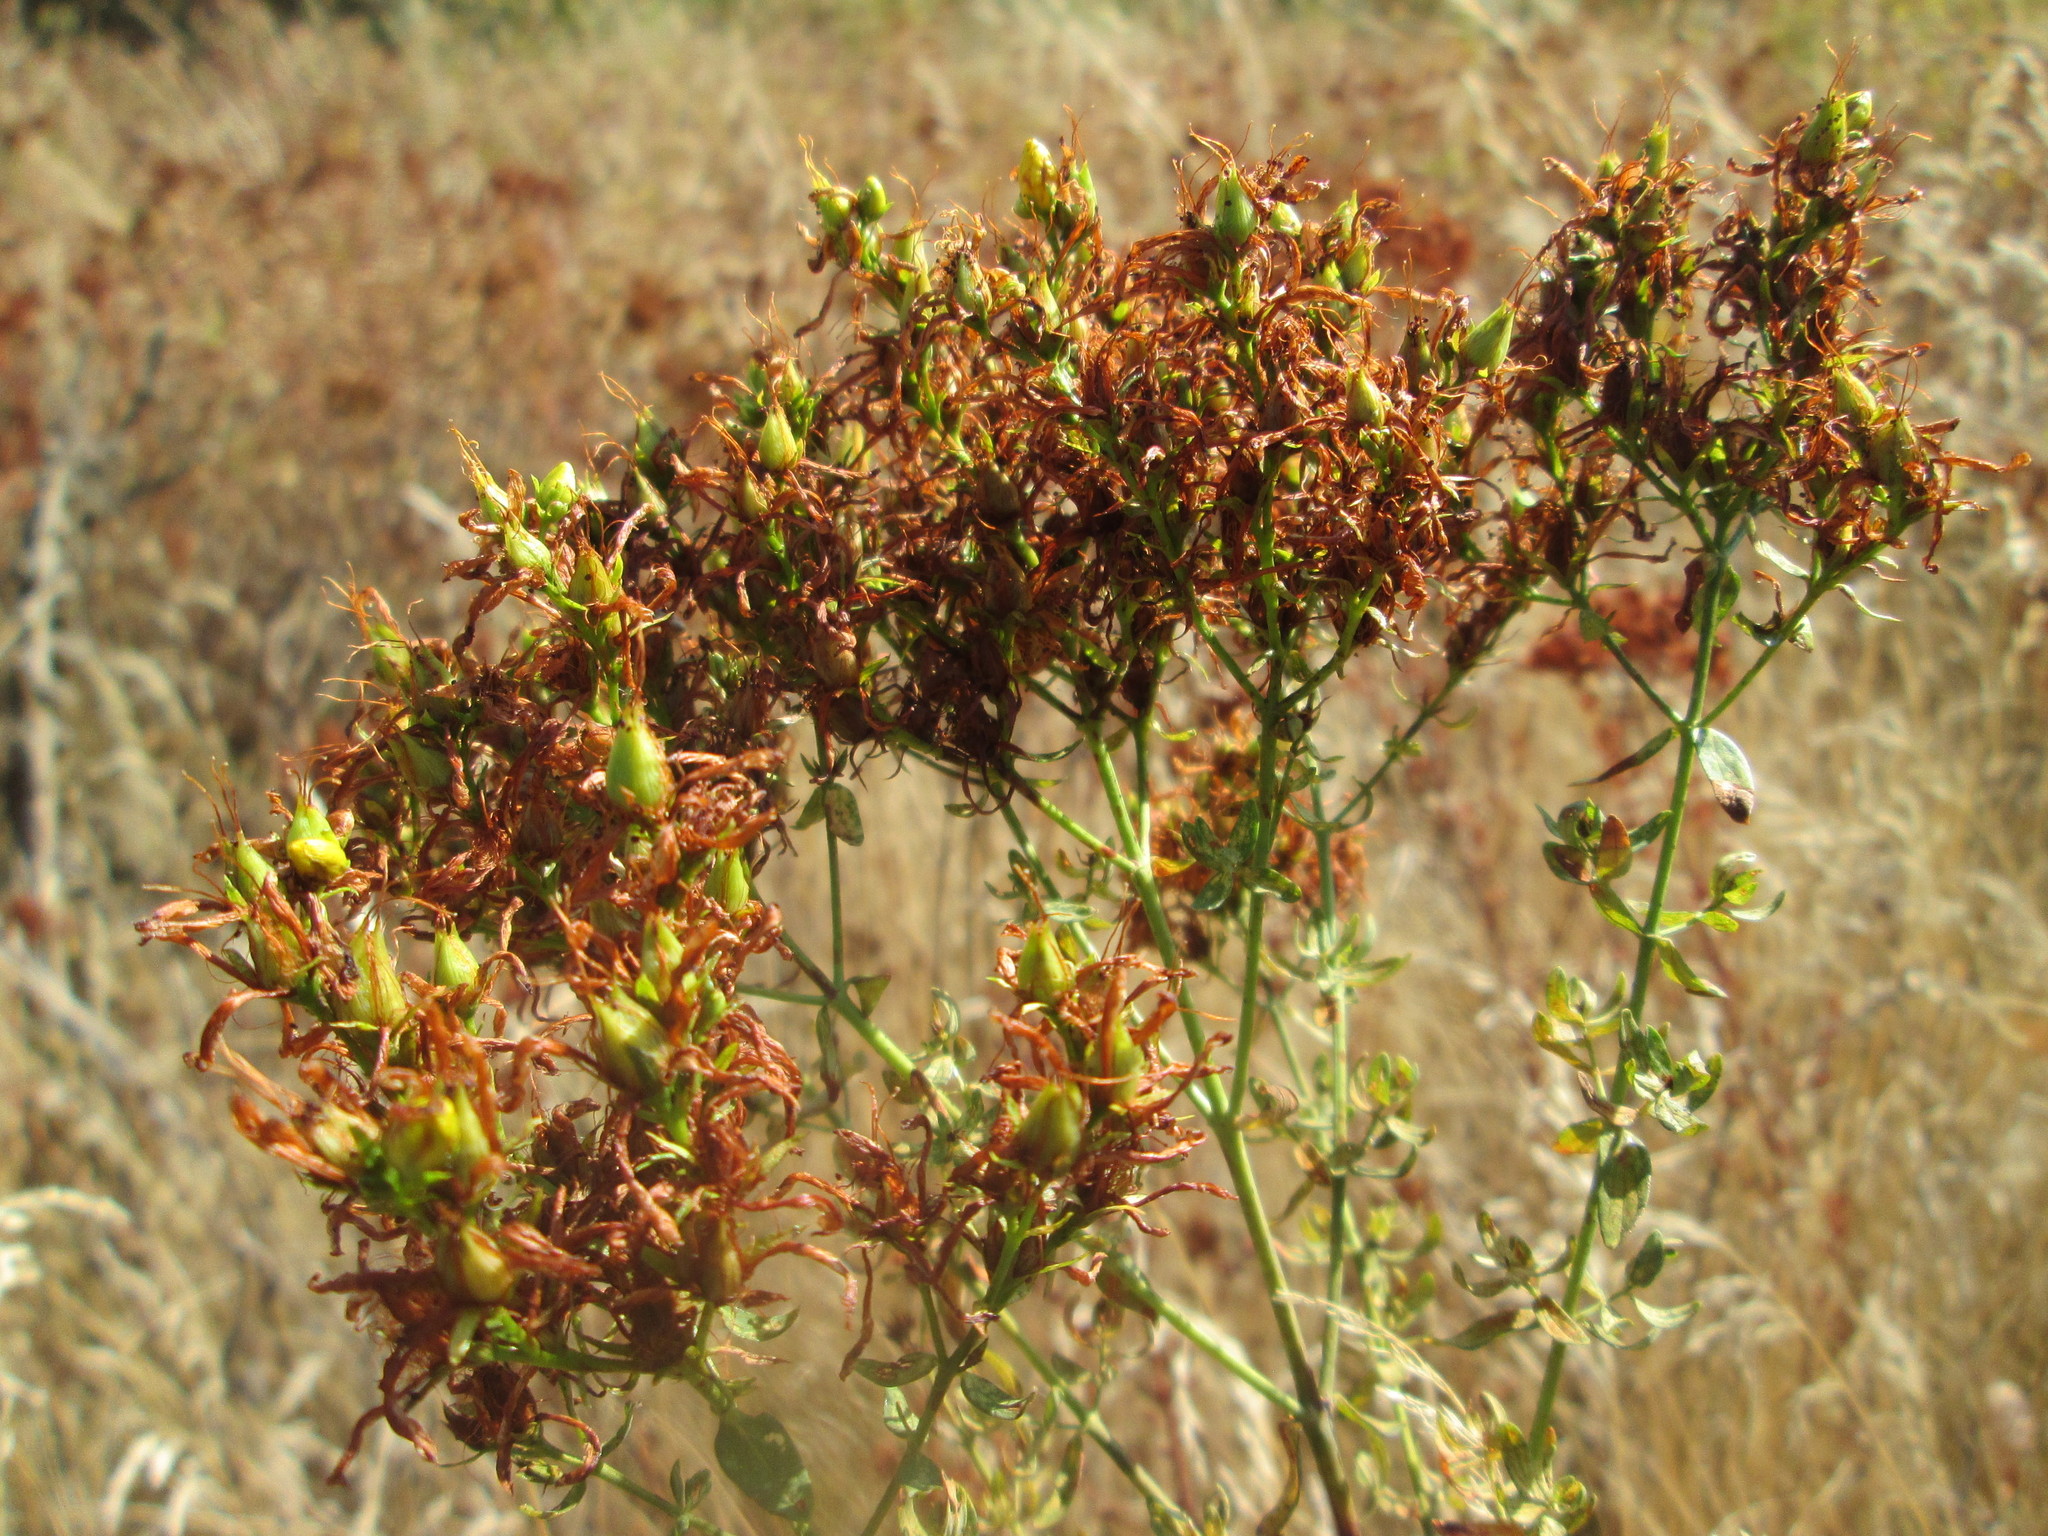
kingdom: Plantae
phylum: Tracheophyta
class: Magnoliopsida
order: Malpighiales
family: Hypericaceae
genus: Hypericum
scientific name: Hypericum perforatum
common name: Common st. johnswort
